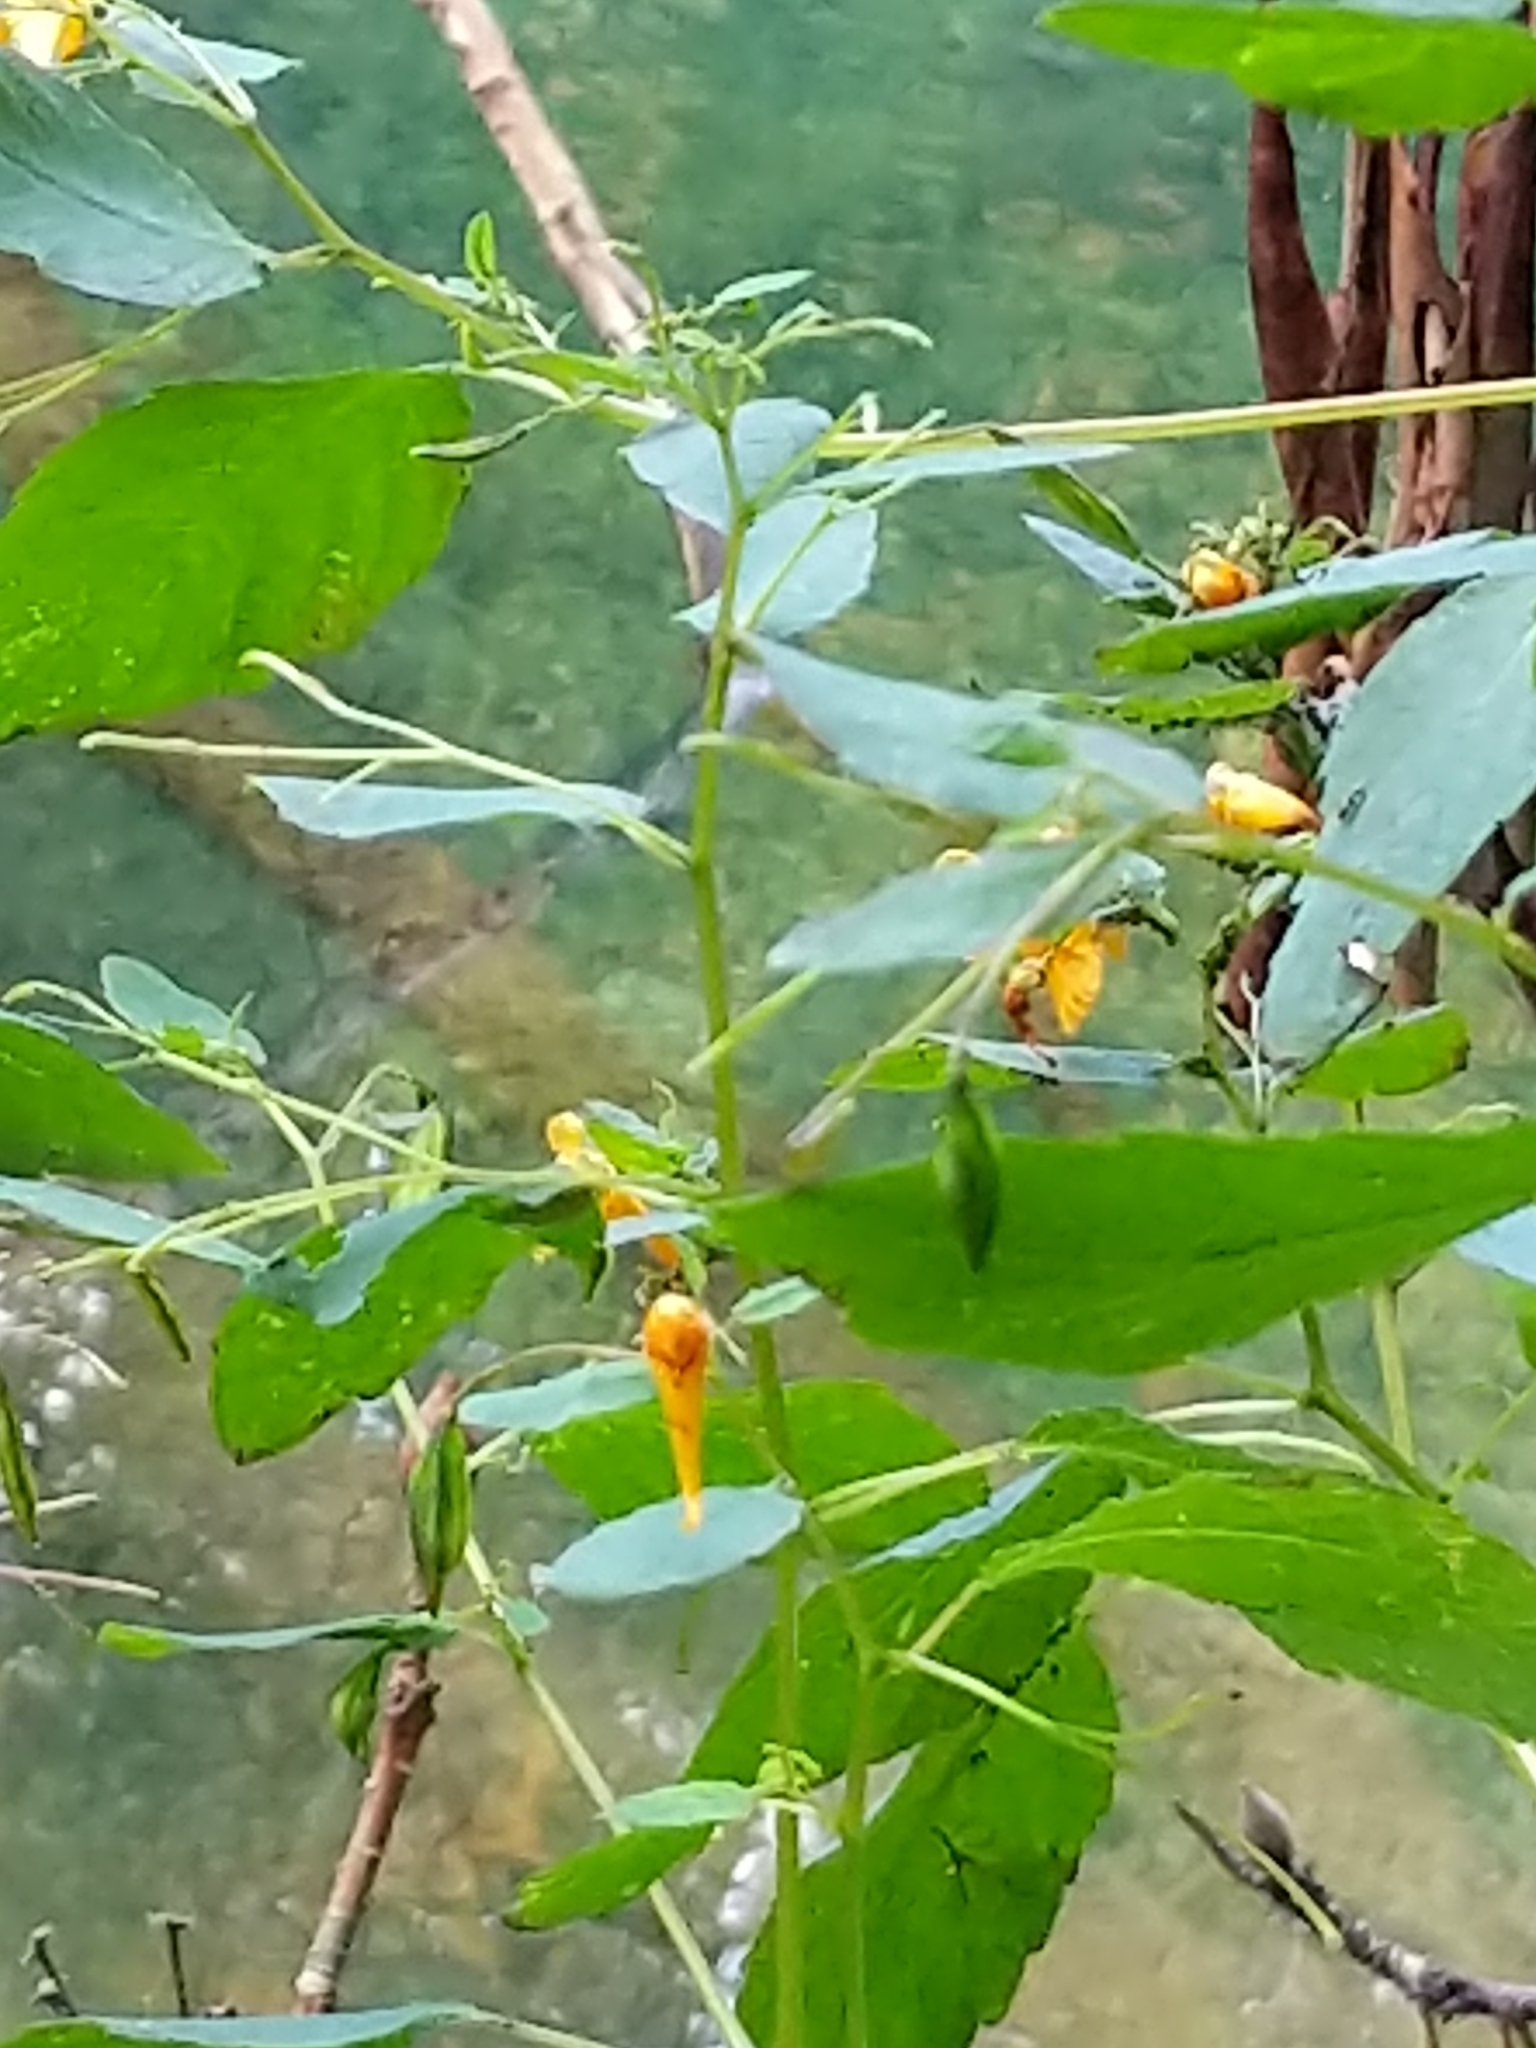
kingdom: Plantae
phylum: Tracheophyta
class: Magnoliopsida
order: Ericales
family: Balsaminaceae
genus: Impatiens
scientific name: Impatiens capensis
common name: Orange balsam
